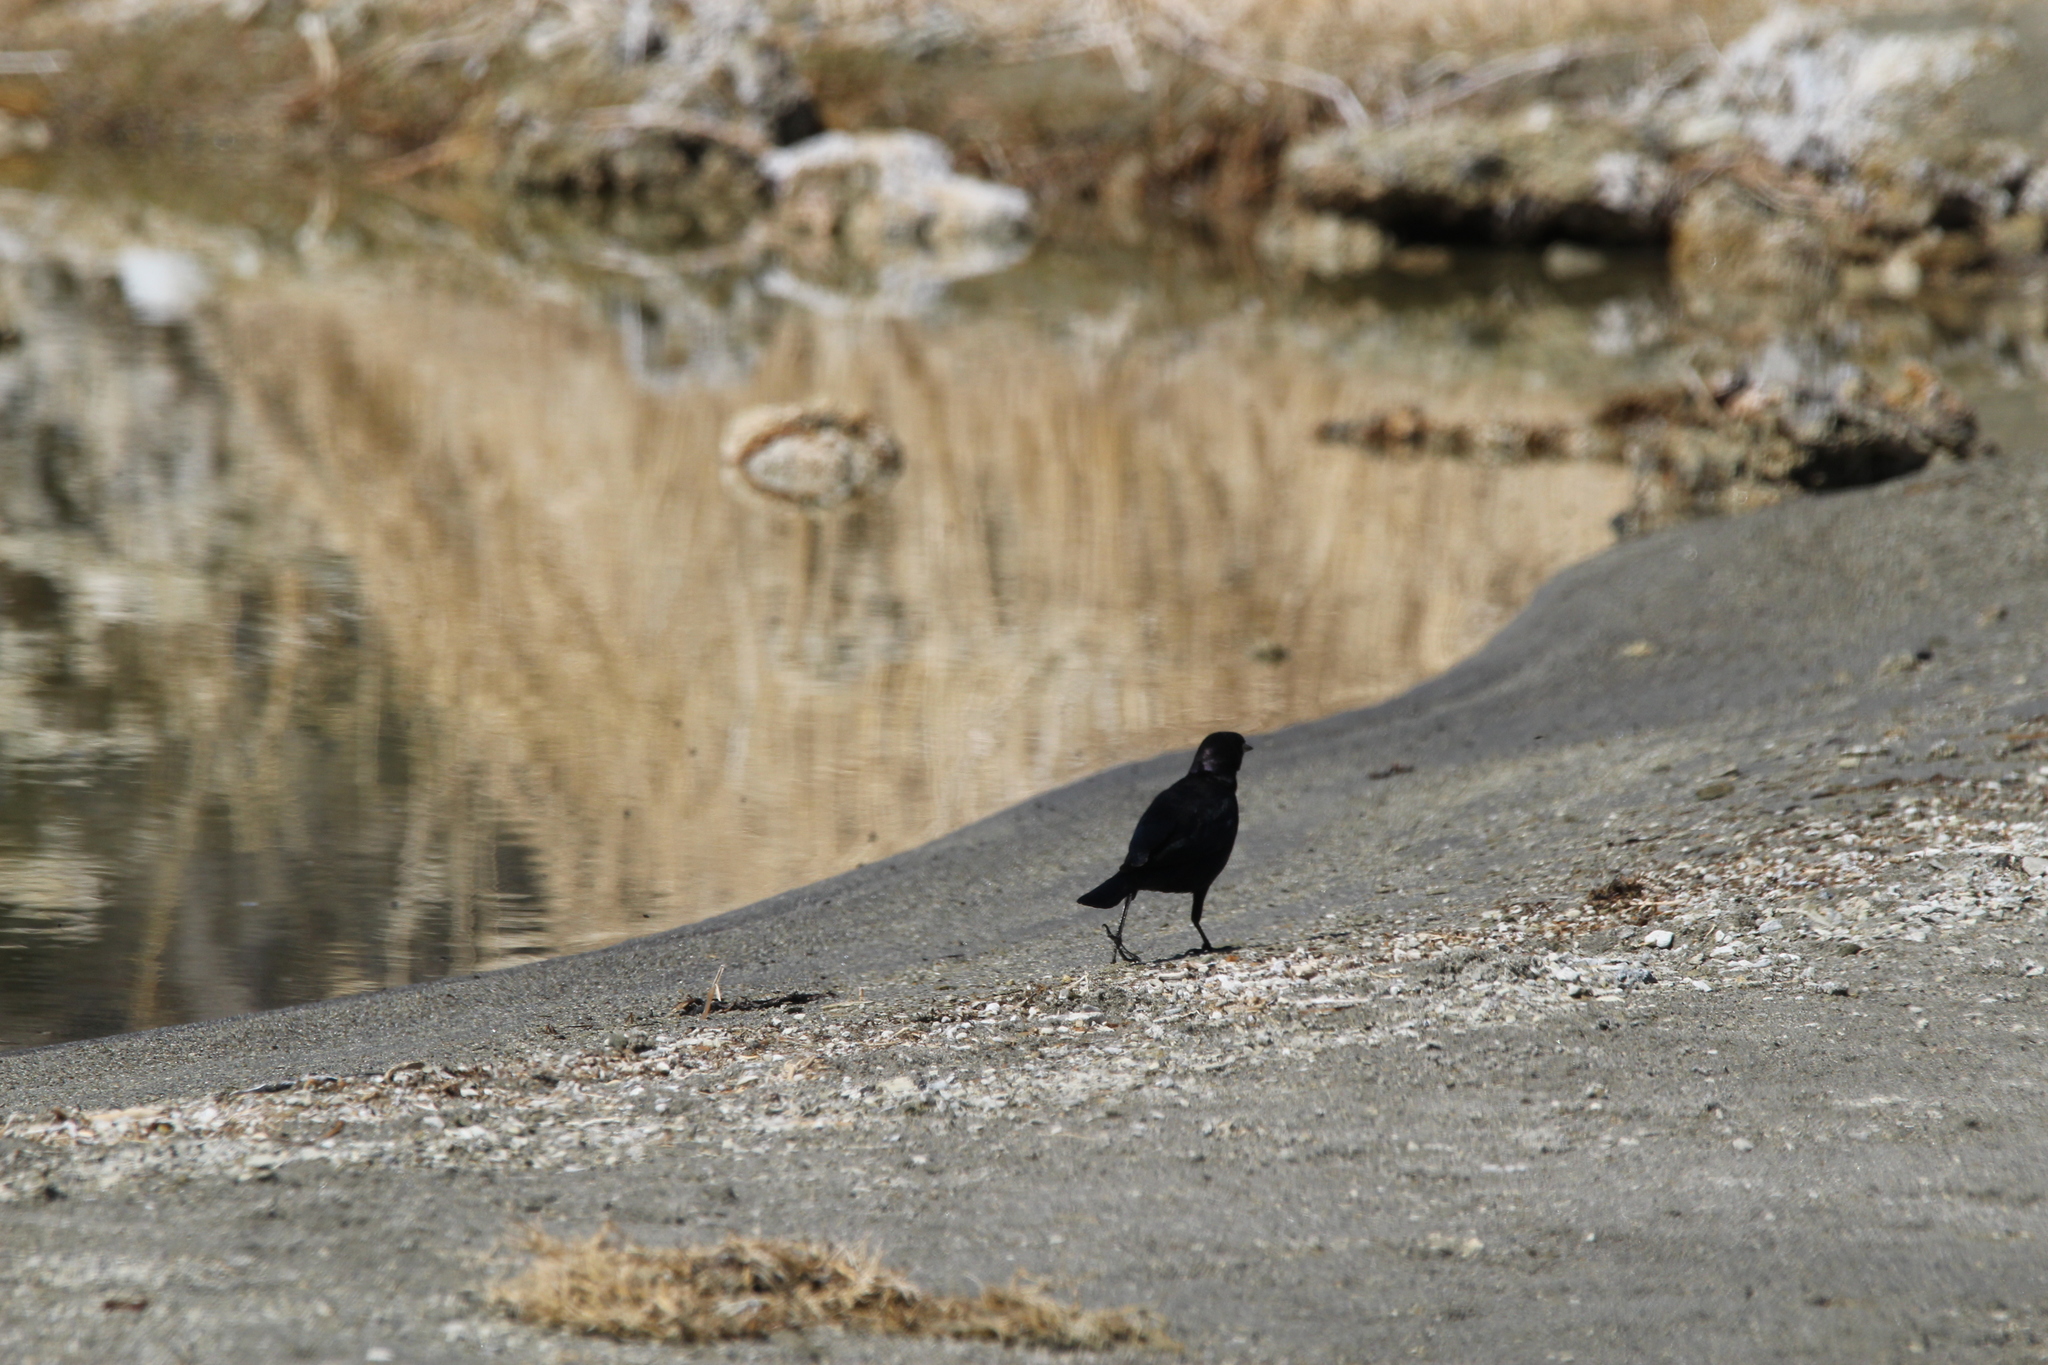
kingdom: Animalia
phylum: Chordata
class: Aves
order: Passeriformes
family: Icteridae
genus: Euphagus
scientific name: Euphagus cyanocephalus
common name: Brewer's blackbird
